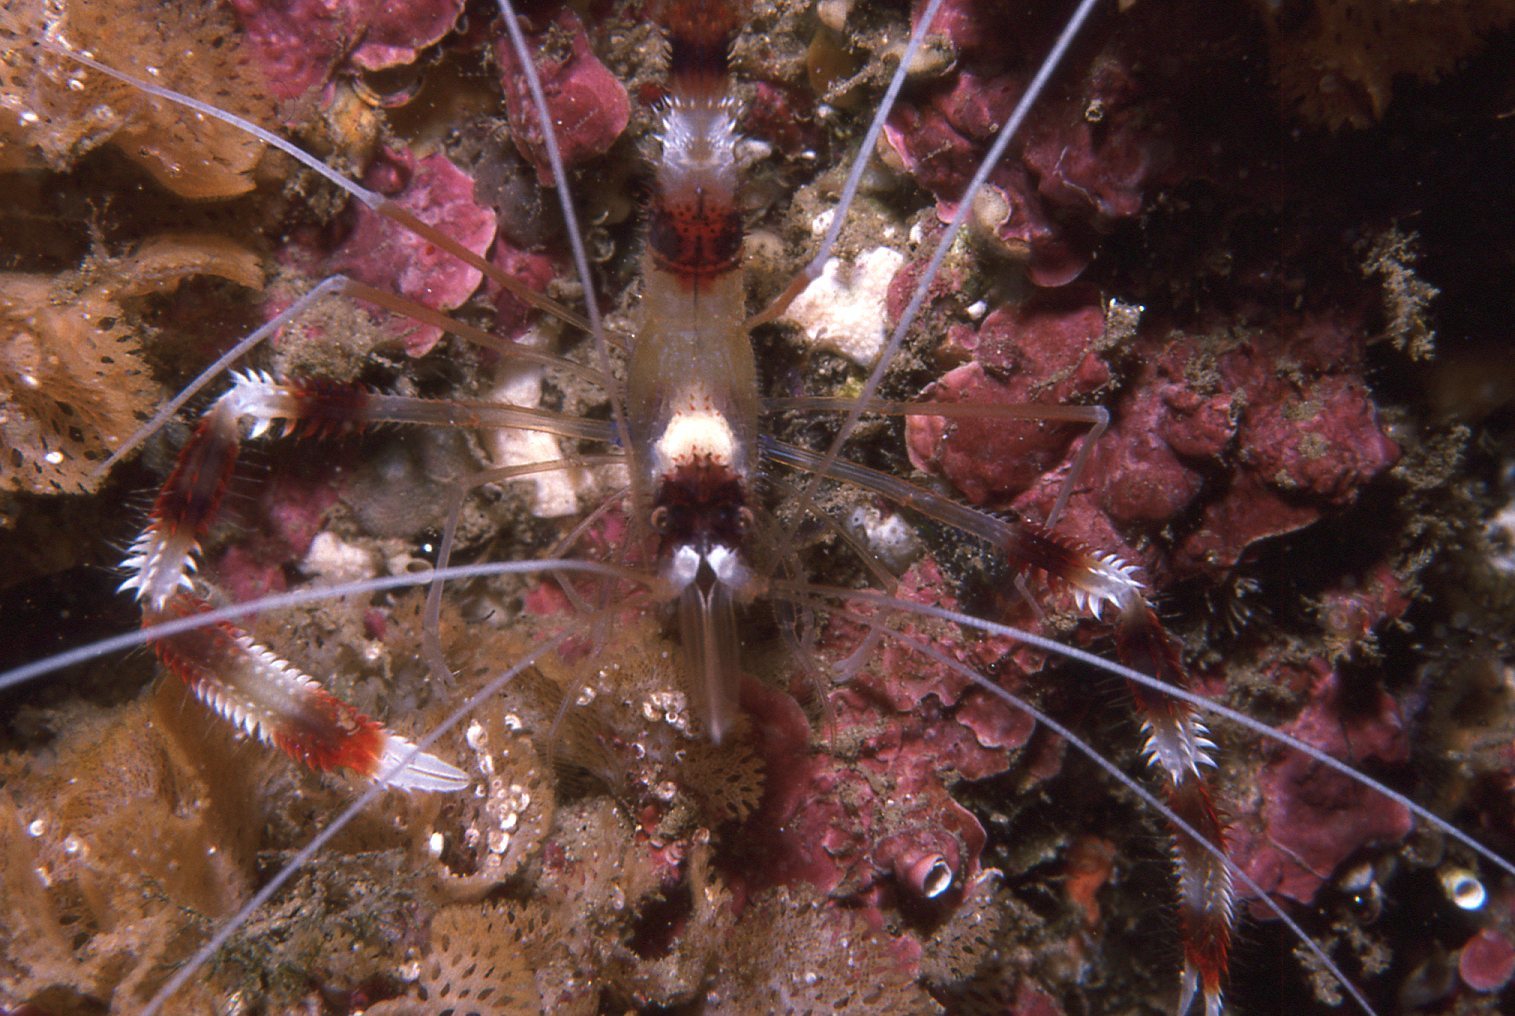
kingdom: Animalia
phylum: Arthropoda
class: Malacostraca
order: Decapoda
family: Stenopodidae
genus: Stenopus
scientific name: Stenopus hispidus
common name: Banded coral shrimp
